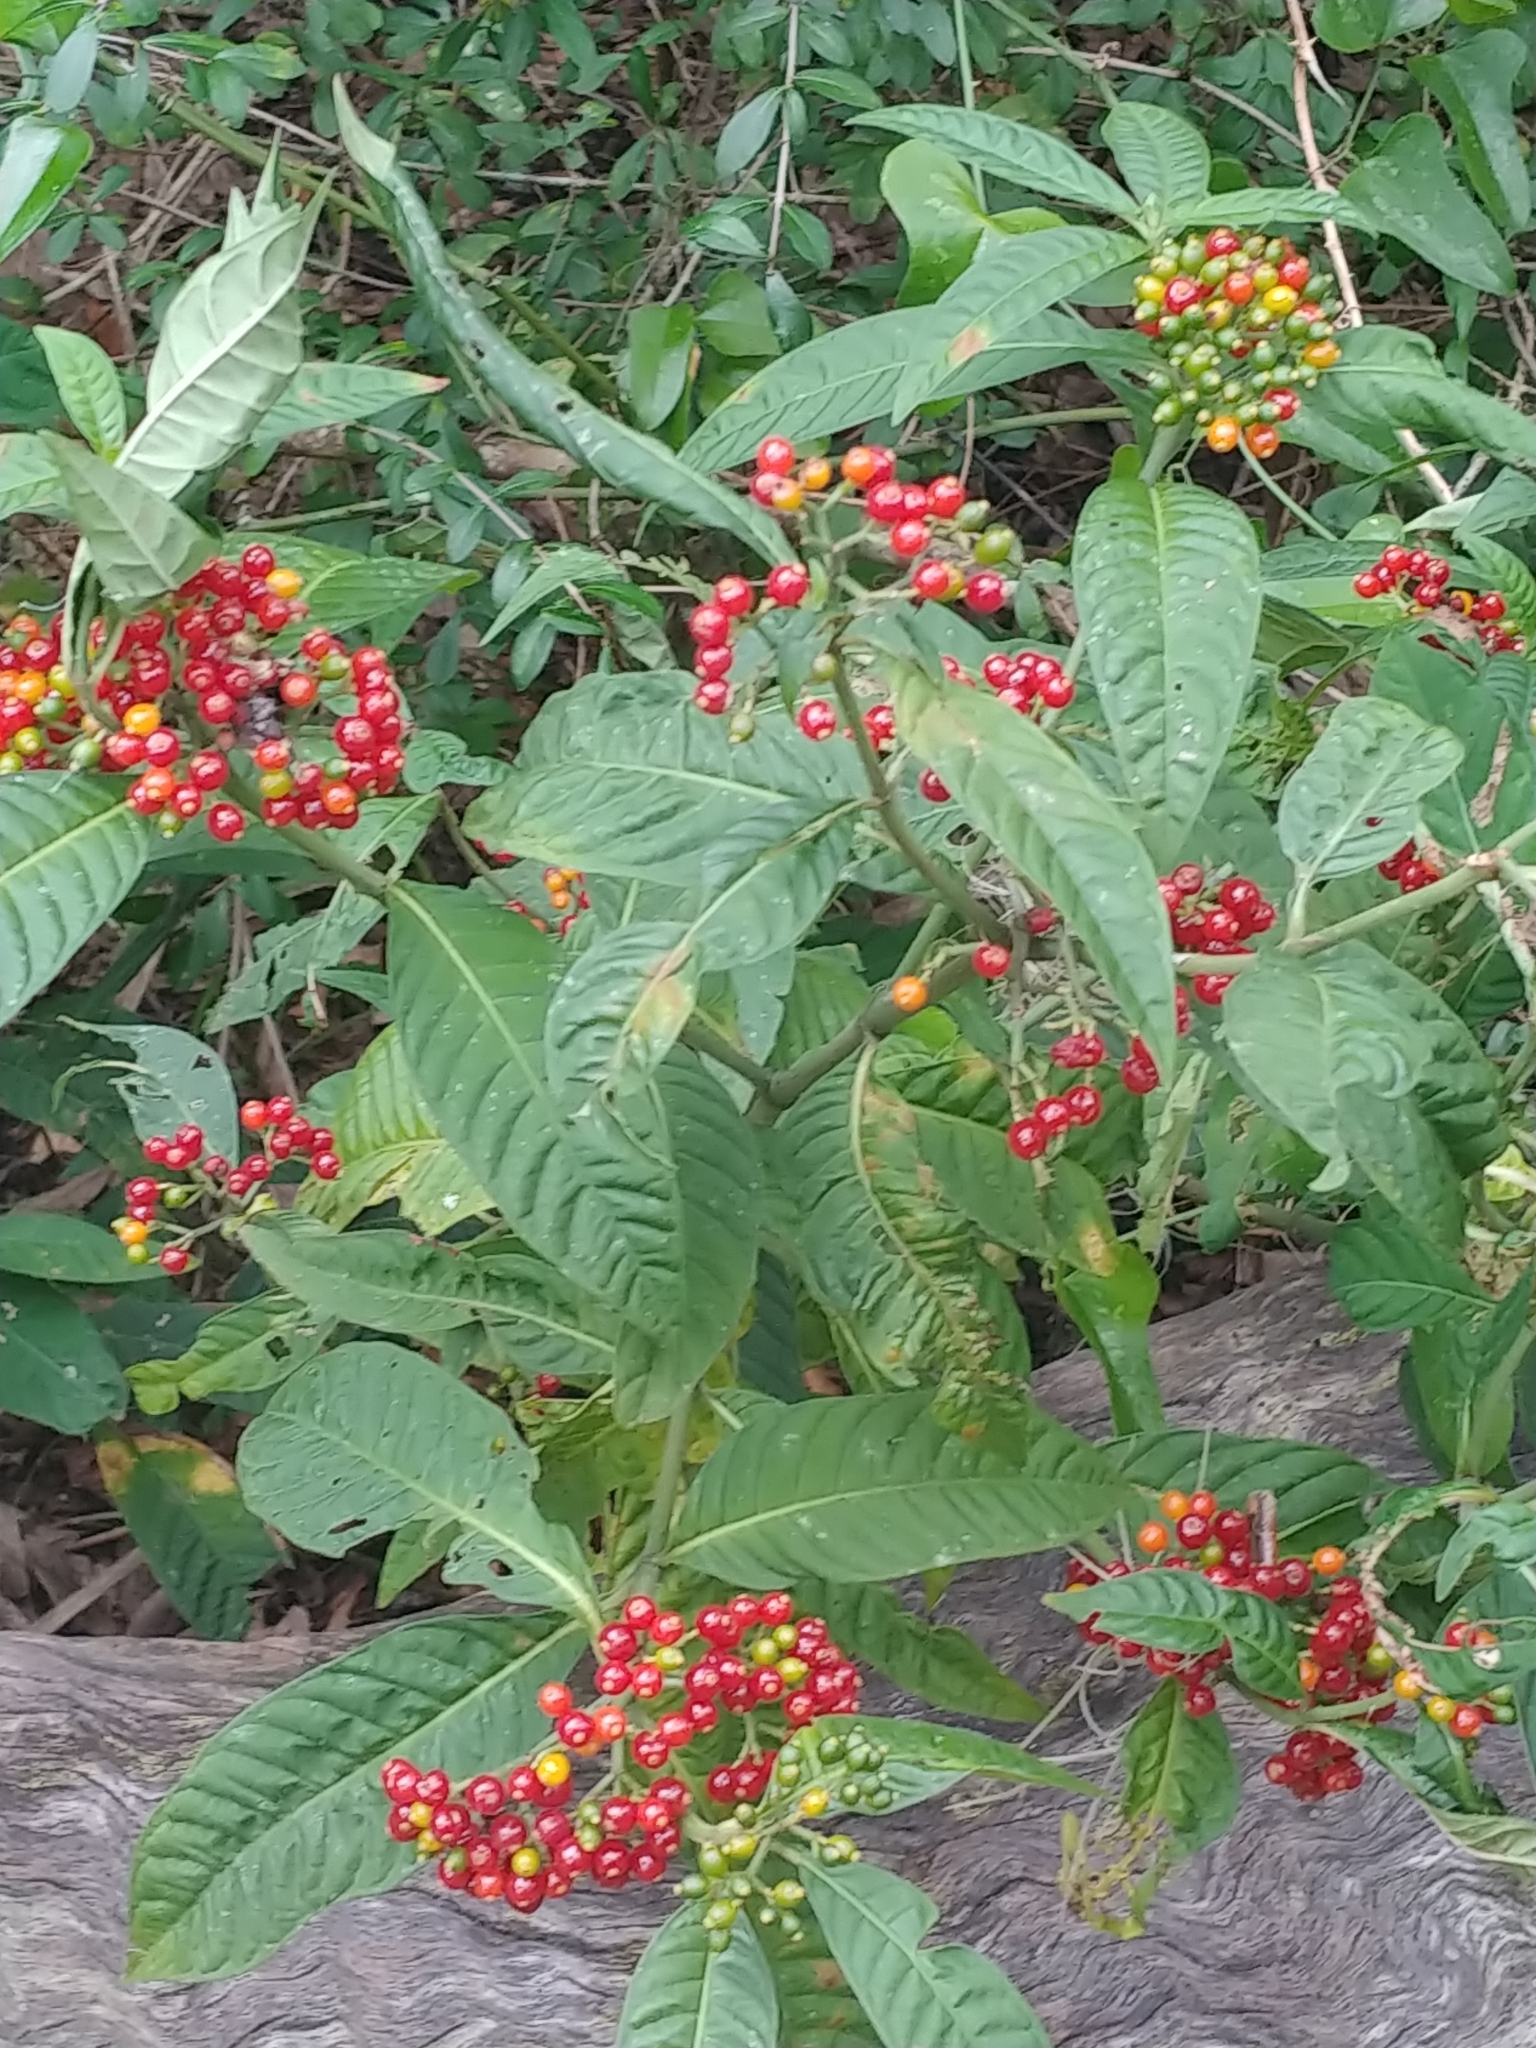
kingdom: Plantae
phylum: Tracheophyta
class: Magnoliopsida
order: Gentianales
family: Rubiaceae
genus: Psychotria
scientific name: Psychotria tenuifolia
